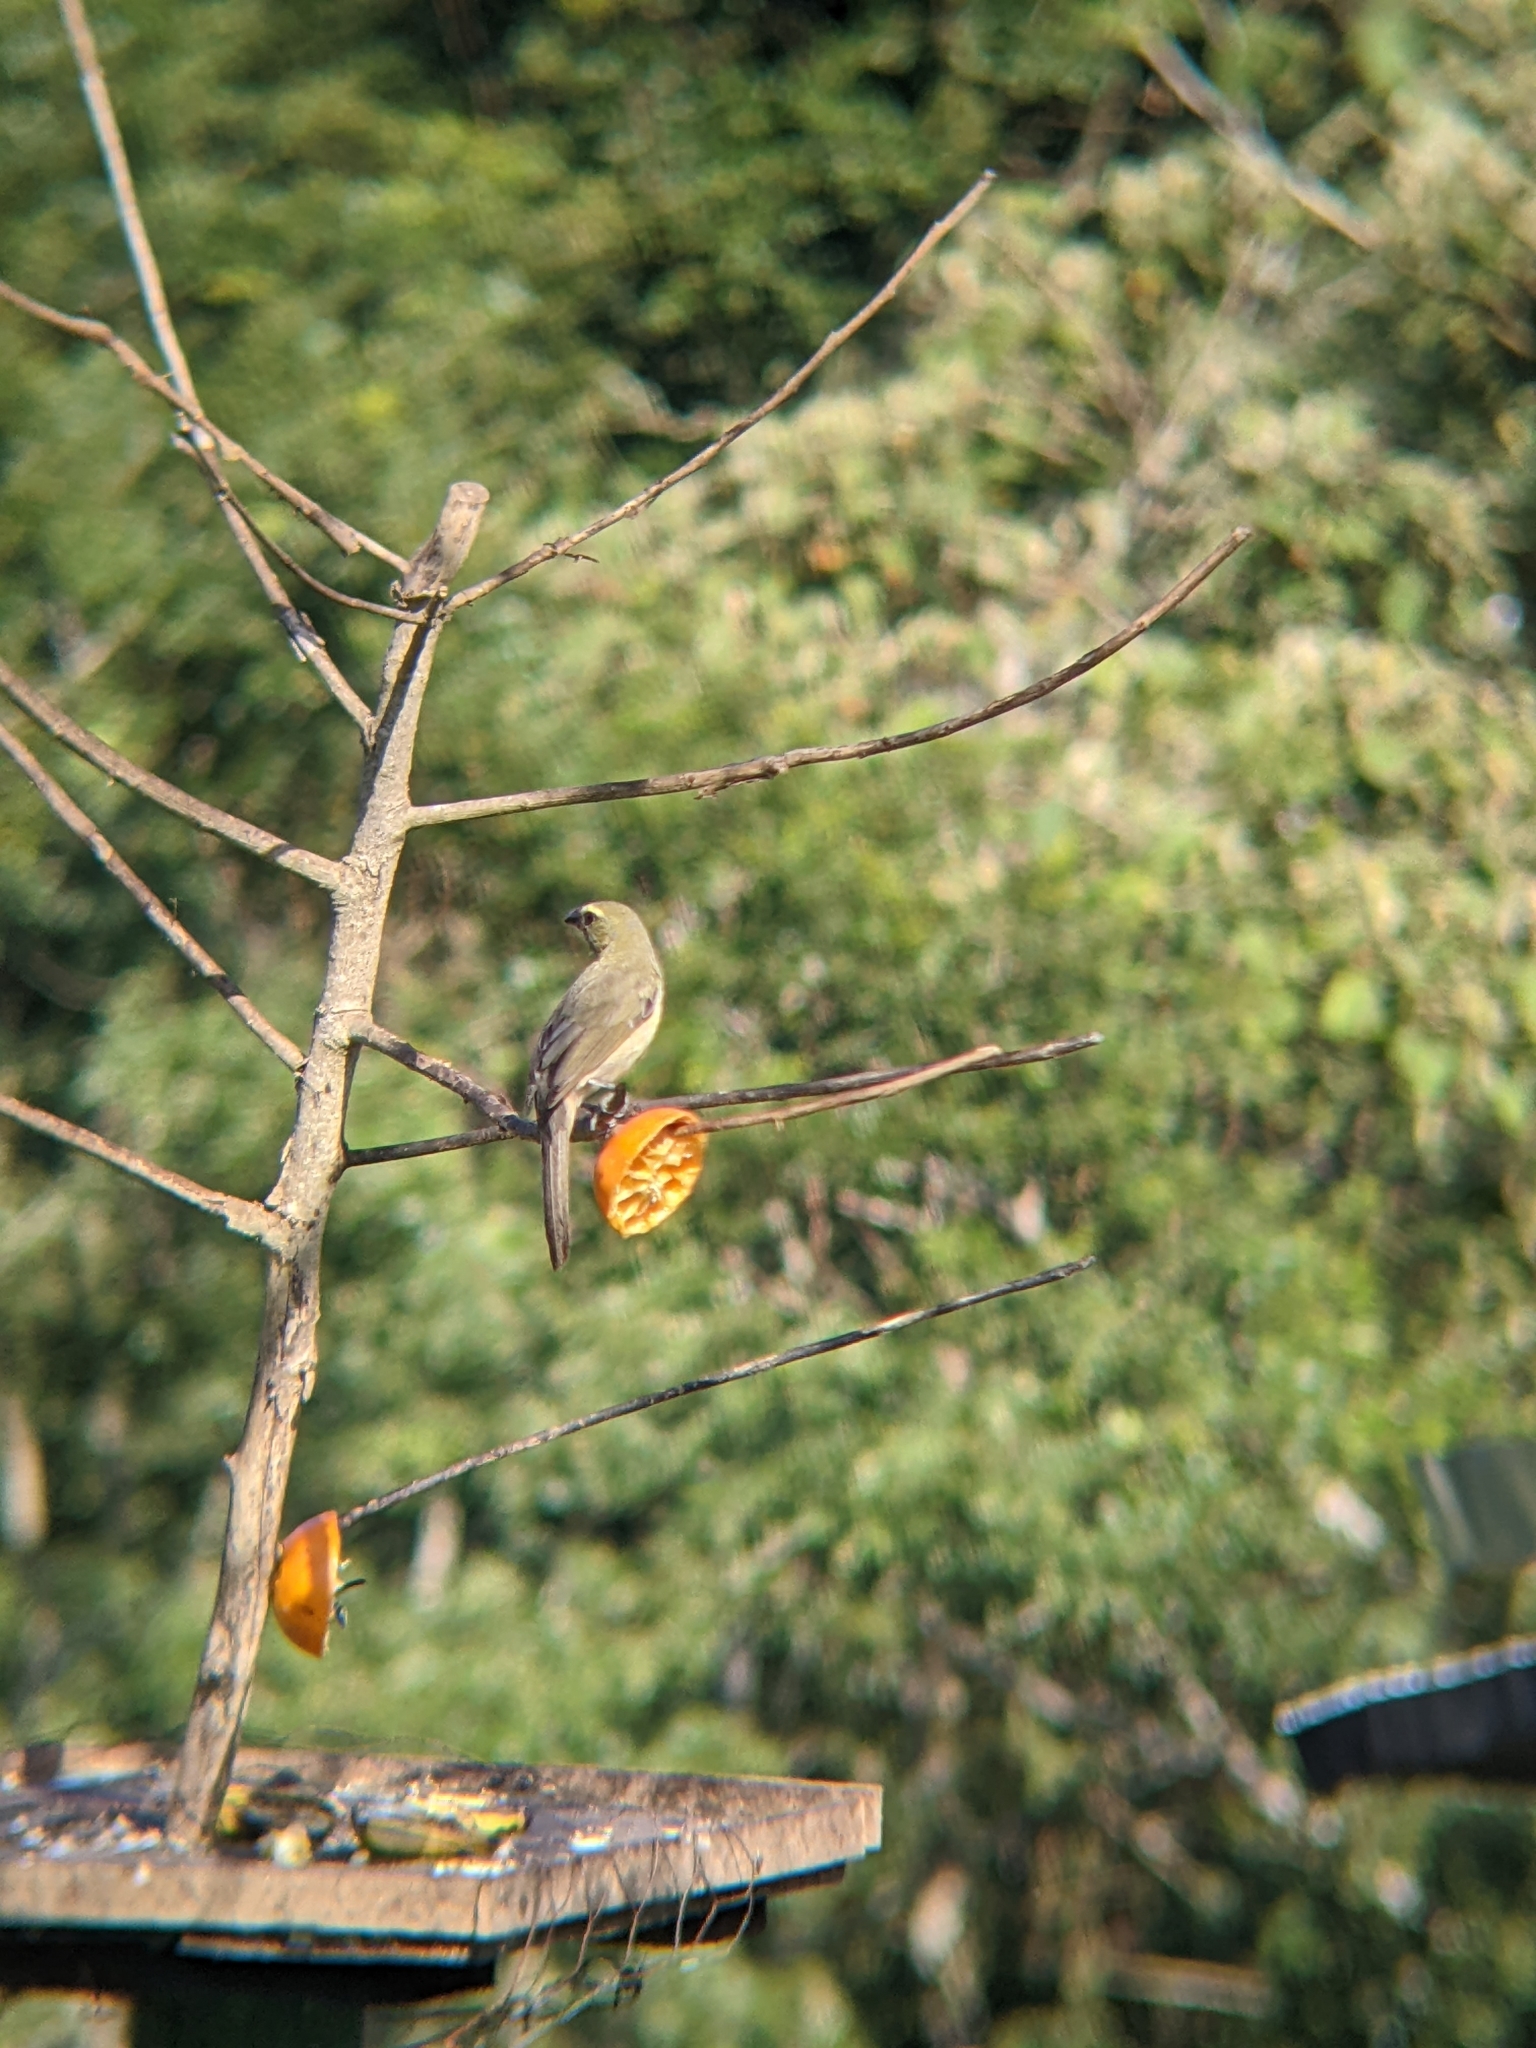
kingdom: Animalia
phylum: Chordata
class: Aves
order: Passeriformes
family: Thraupidae
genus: Saltator
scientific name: Saltator grandis
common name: Cinnamon-bellied saltator
